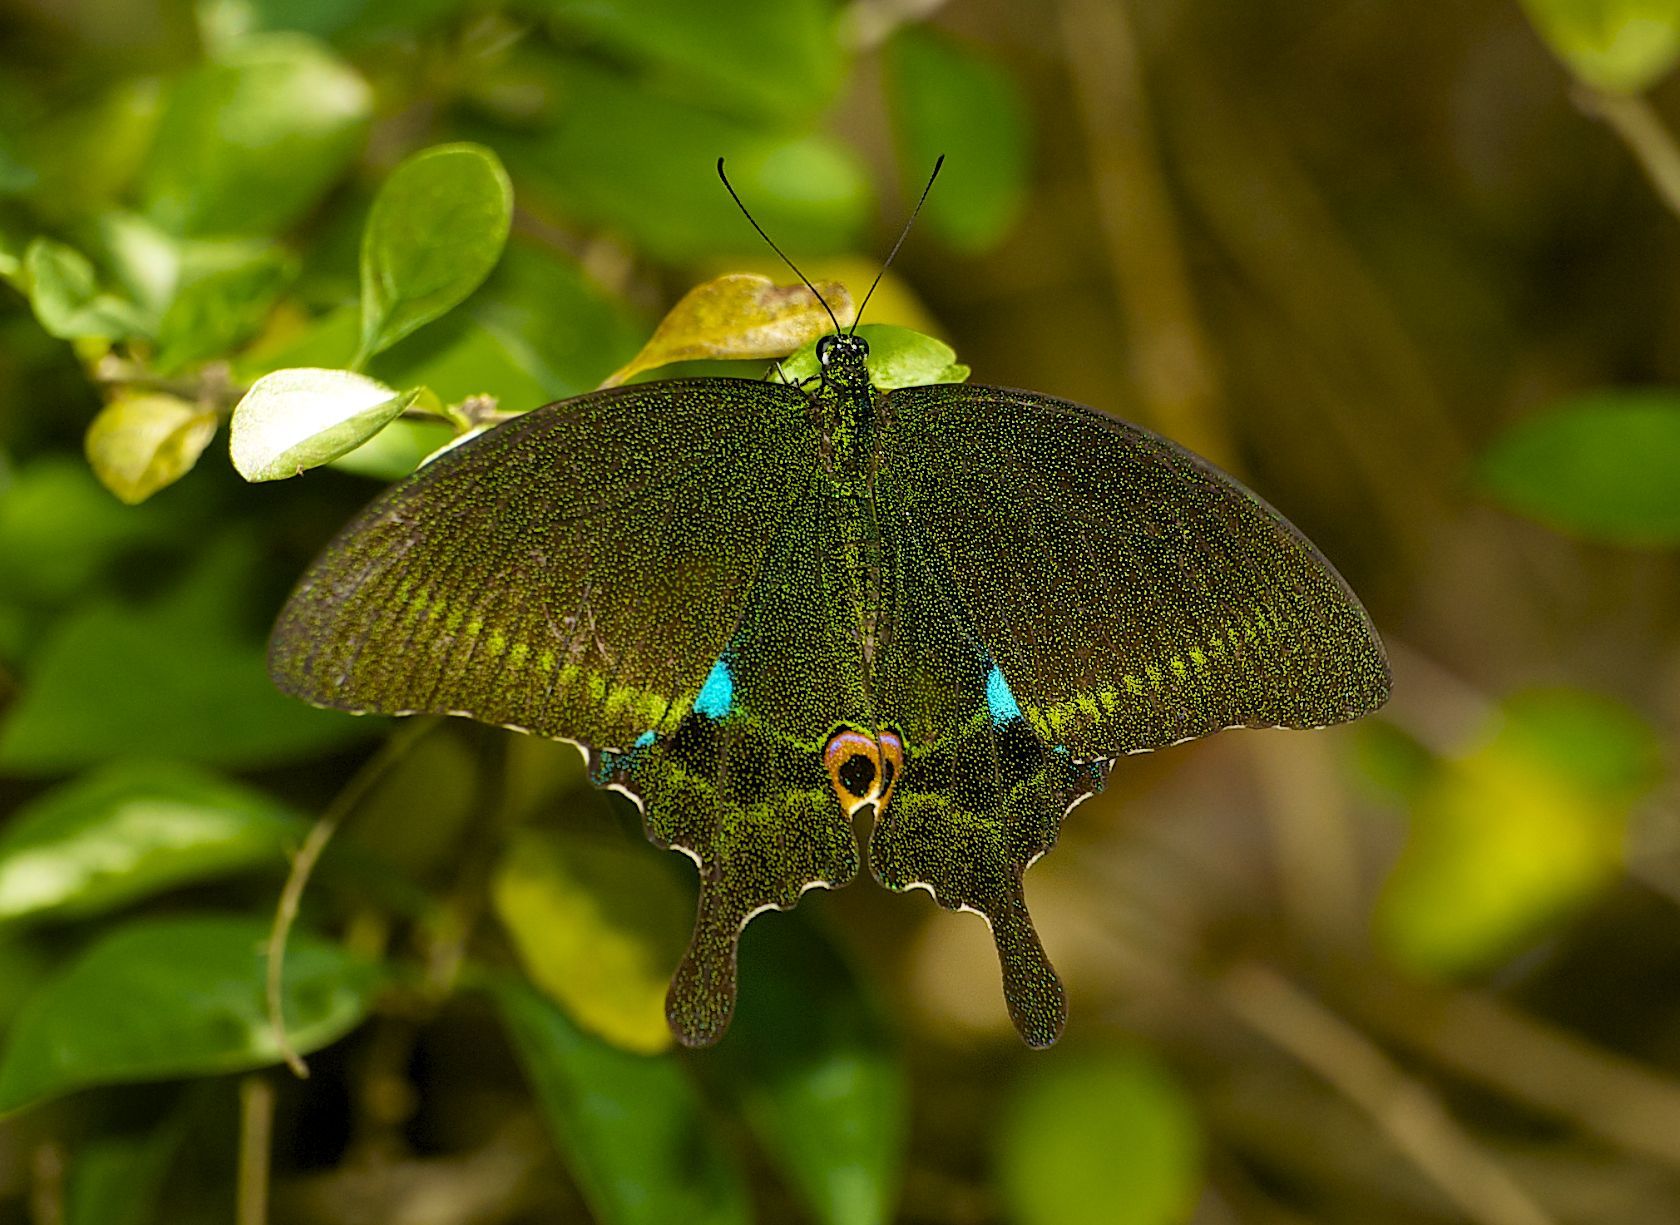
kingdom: Animalia
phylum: Arthropoda
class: Insecta
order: Lepidoptera
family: Papilionidae
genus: Papilio
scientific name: Papilio paris
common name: Paris peacock
